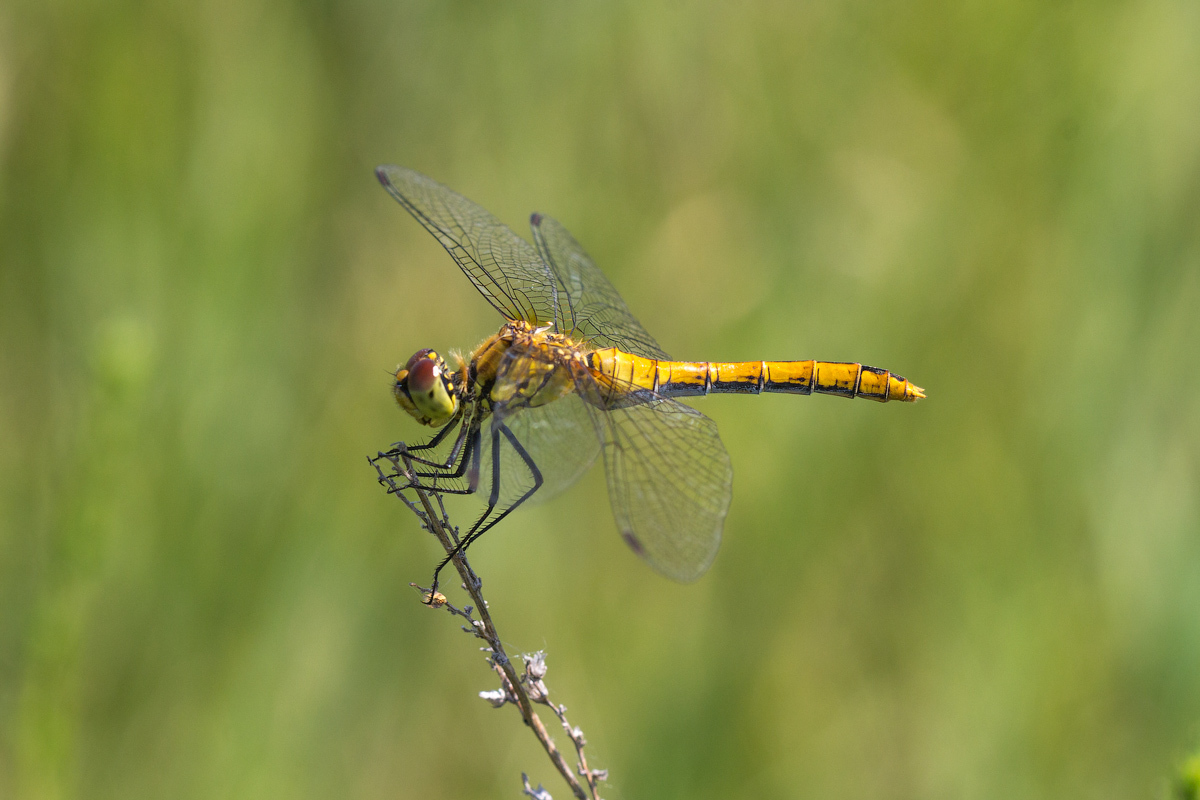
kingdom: Animalia
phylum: Arthropoda
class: Insecta
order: Odonata
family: Libellulidae
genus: Sympetrum
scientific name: Sympetrum sanguineum
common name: Ruddy darter
